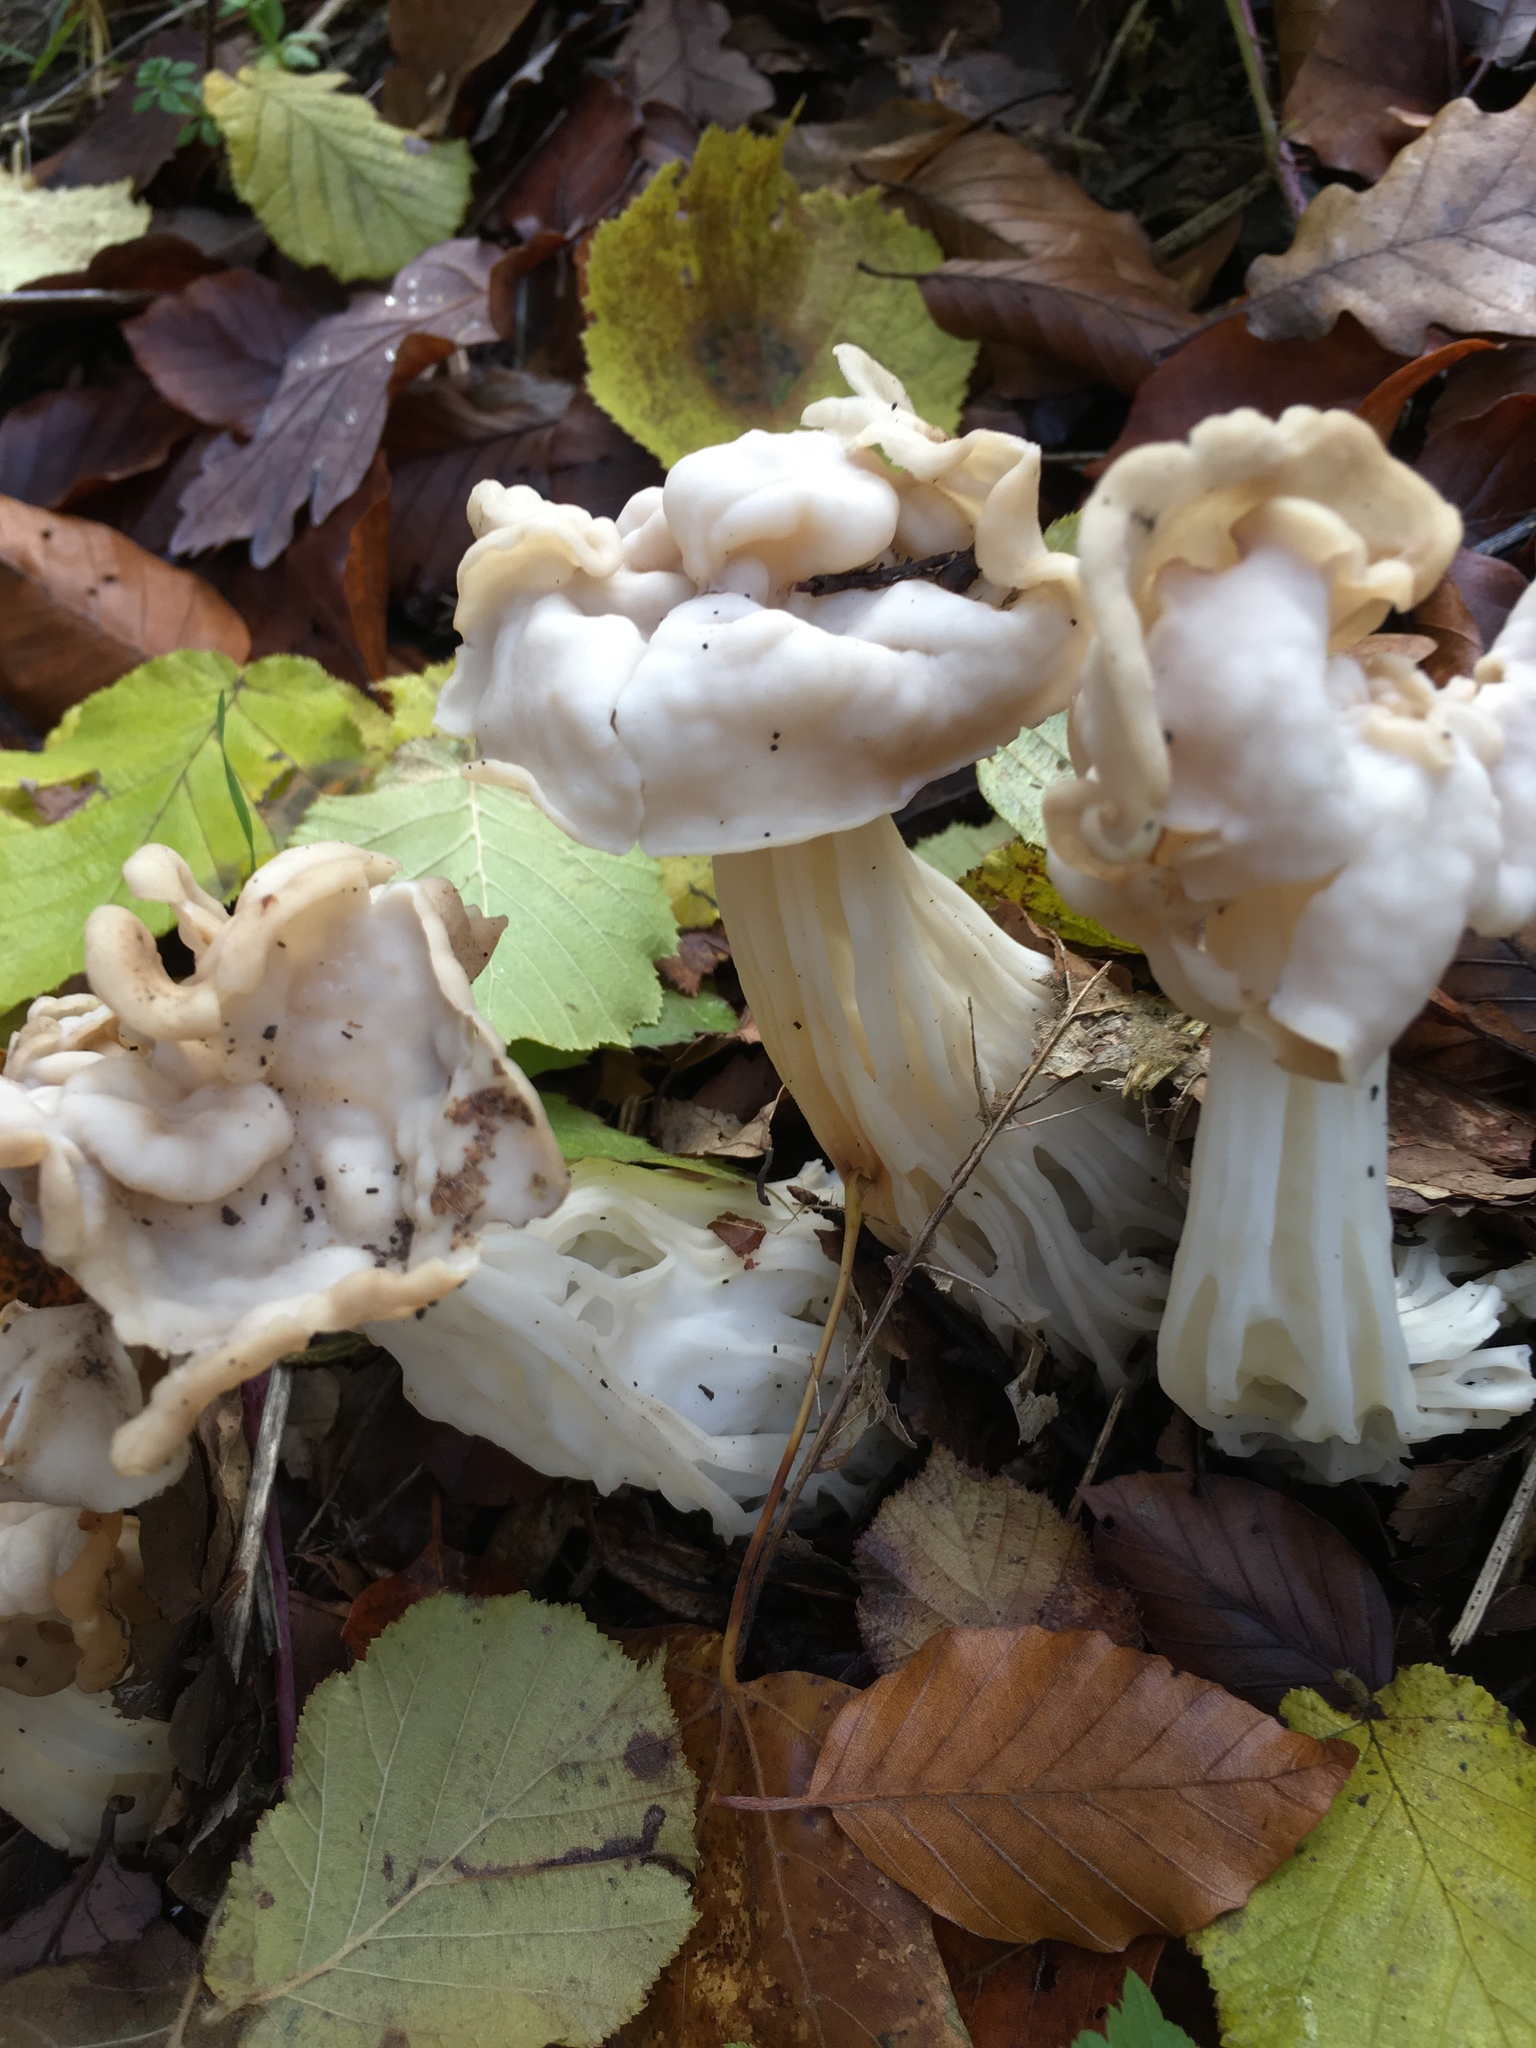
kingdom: Fungi
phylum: Ascomycota
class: Pezizomycetes
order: Pezizales
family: Helvellaceae
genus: Helvella
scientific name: Helvella crispa
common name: White saddle
